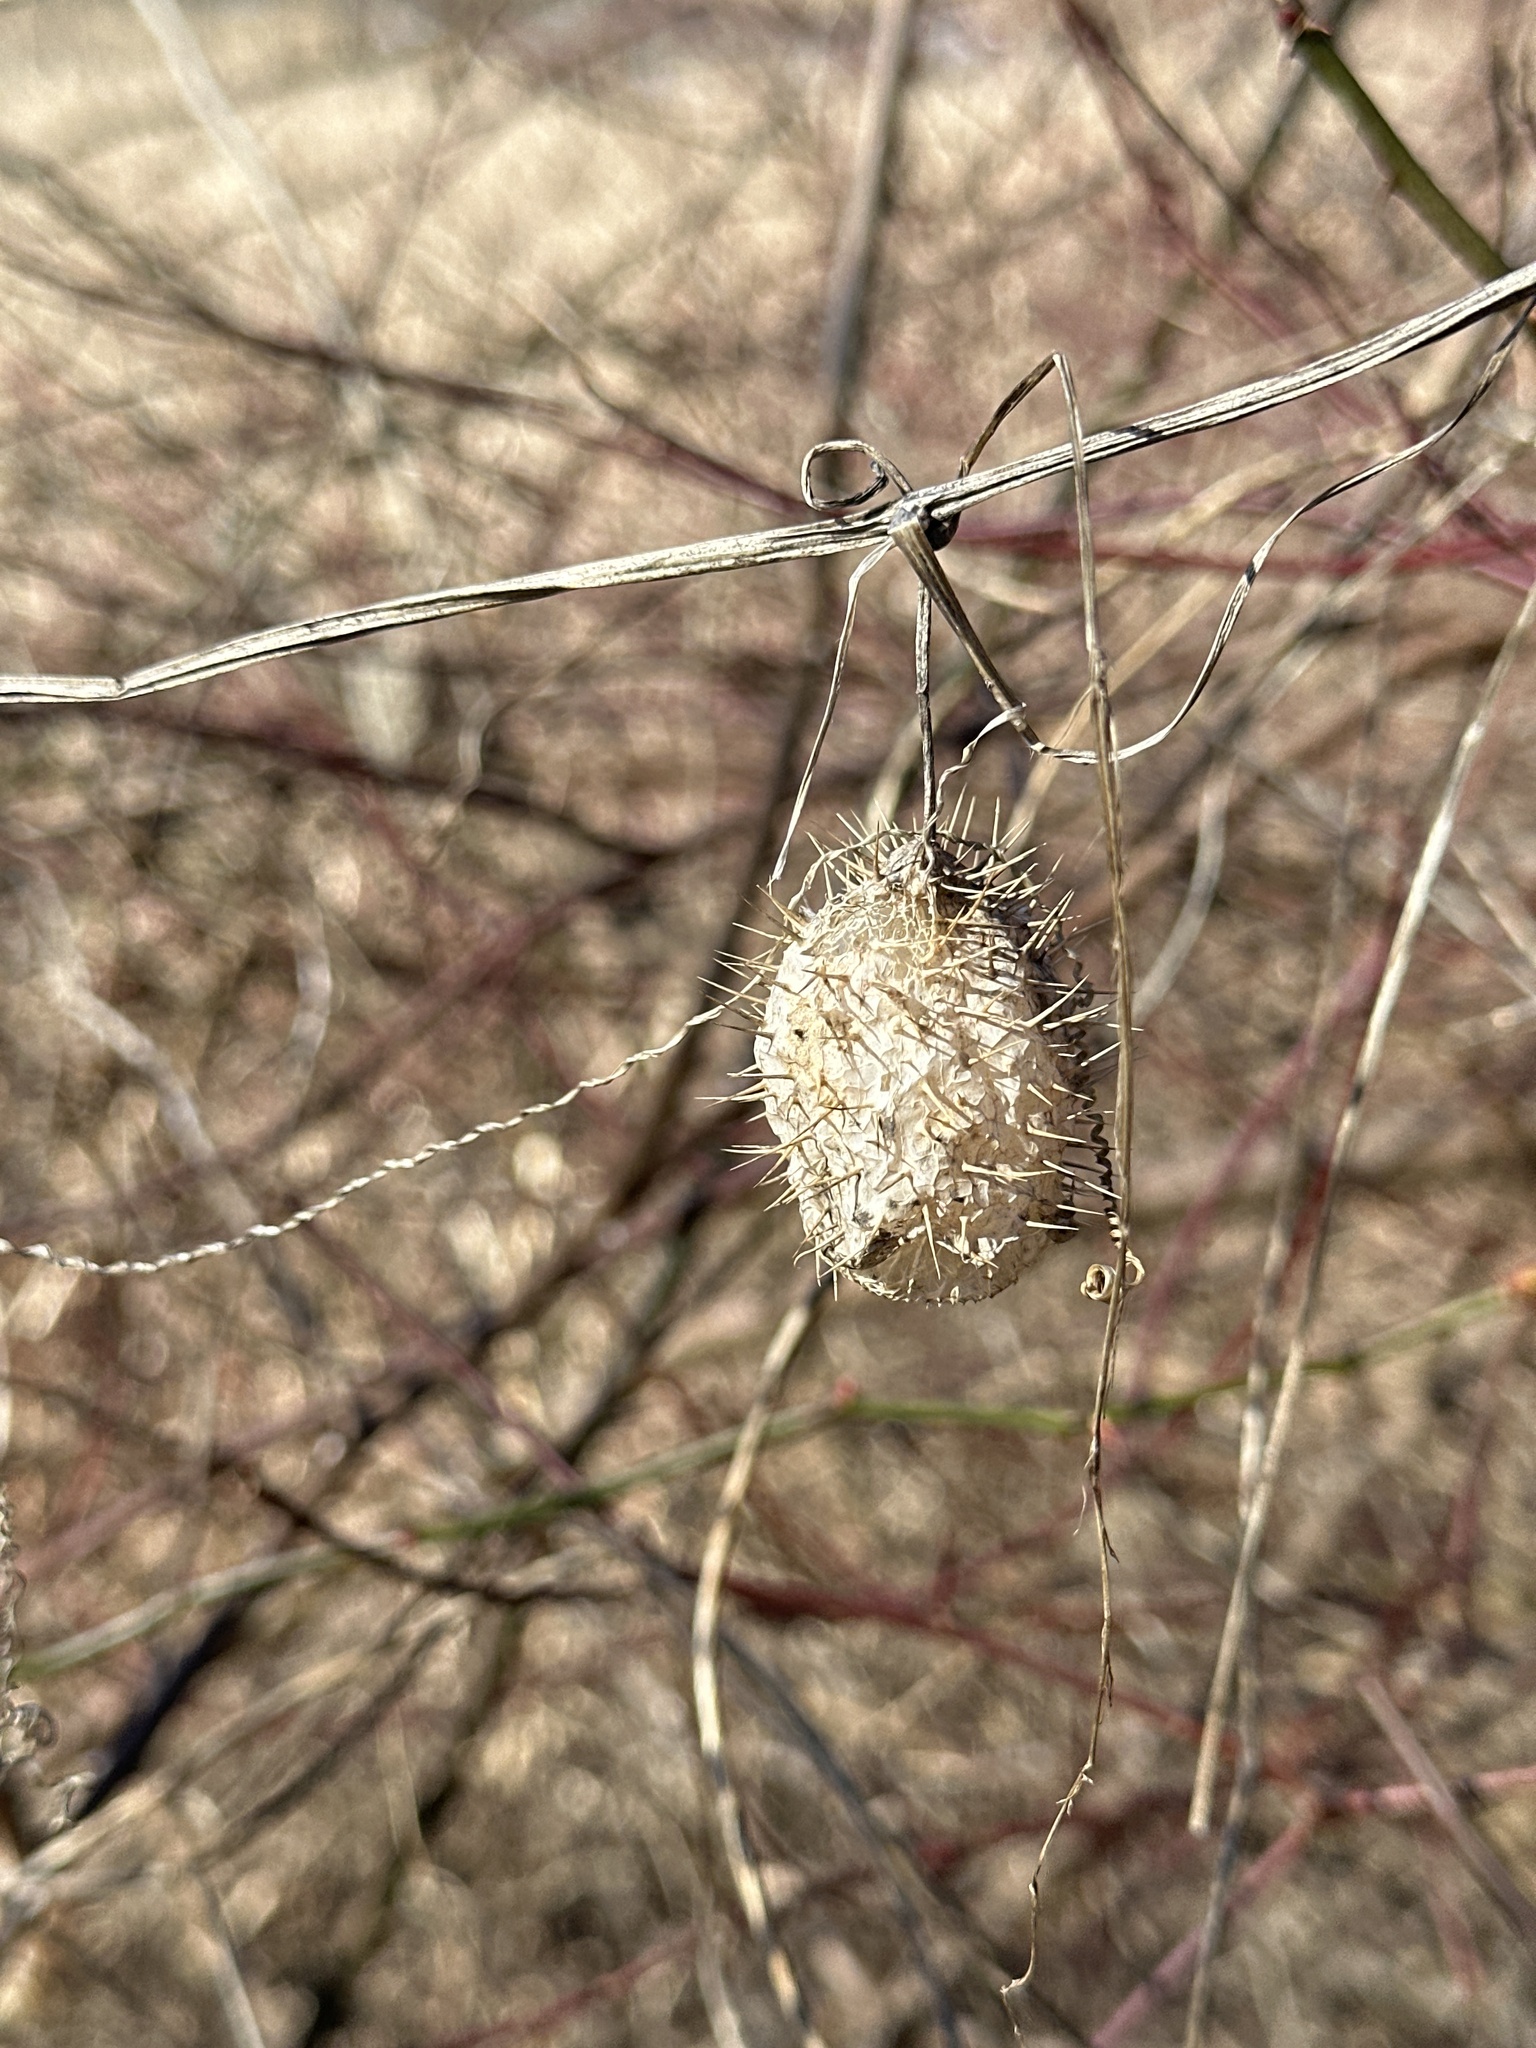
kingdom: Plantae
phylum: Tracheophyta
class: Magnoliopsida
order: Cucurbitales
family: Cucurbitaceae
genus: Echinocystis
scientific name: Echinocystis lobata
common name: Wild cucumber
